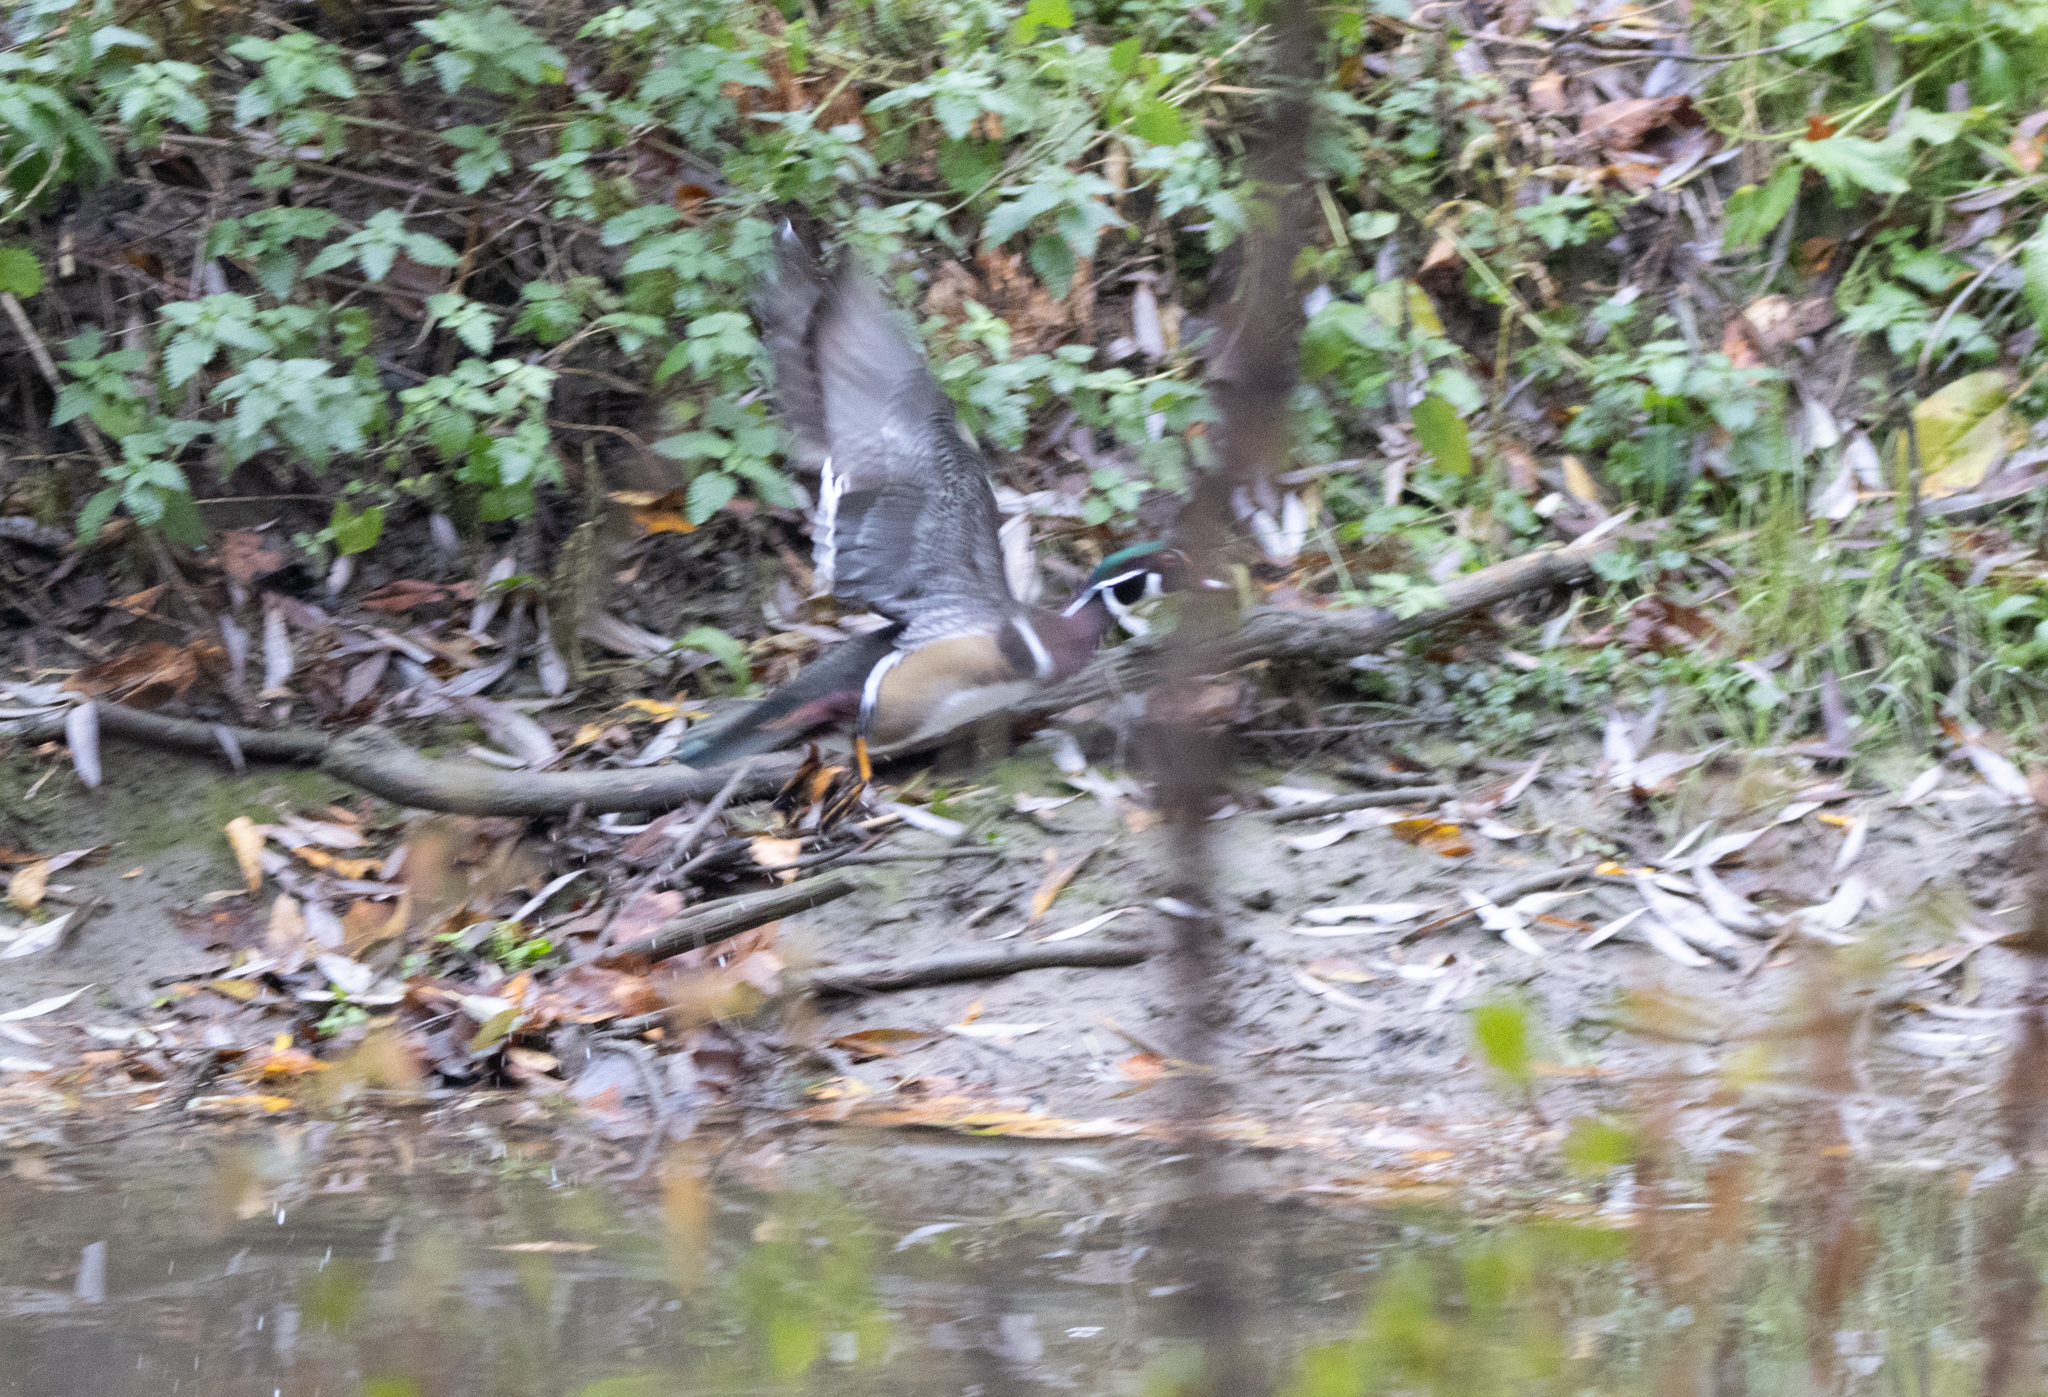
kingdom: Animalia
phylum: Chordata
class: Aves
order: Anseriformes
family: Anatidae
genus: Aix
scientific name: Aix sponsa
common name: Wood duck
